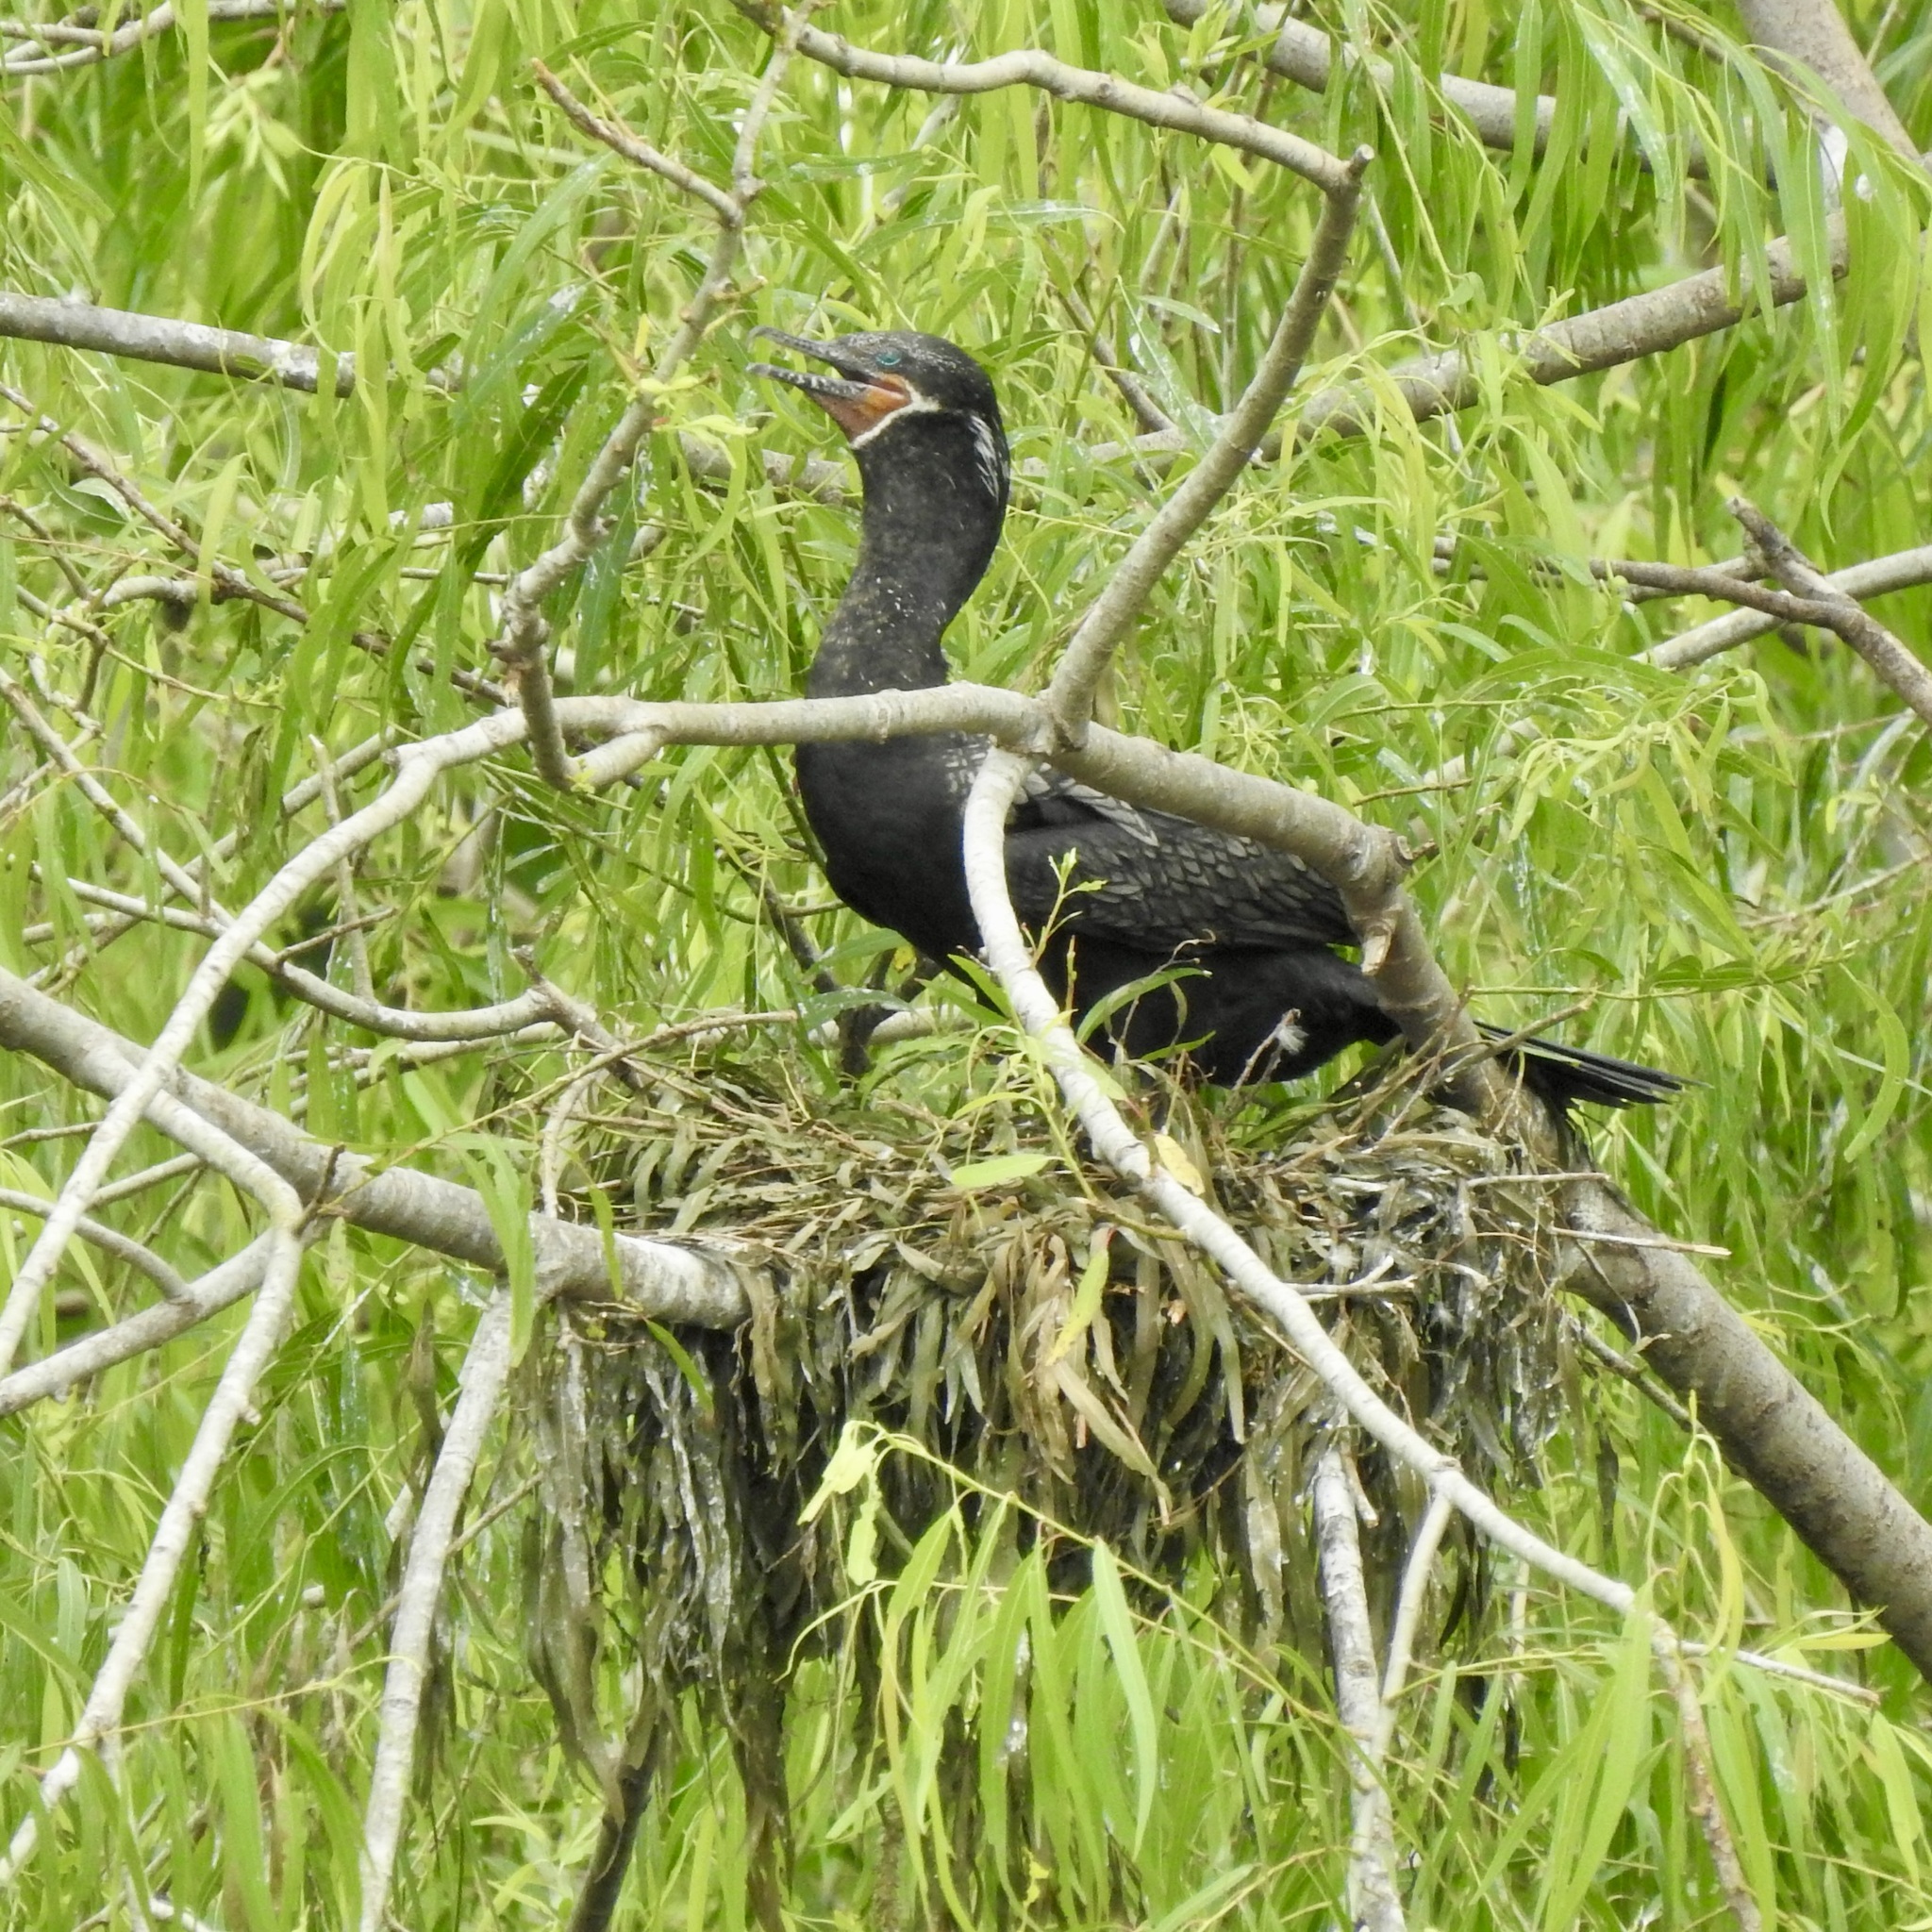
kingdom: Animalia
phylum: Chordata
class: Aves
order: Suliformes
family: Phalacrocoracidae
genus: Phalacrocorax
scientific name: Phalacrocorax brasilianus
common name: Neotropic cormorant
